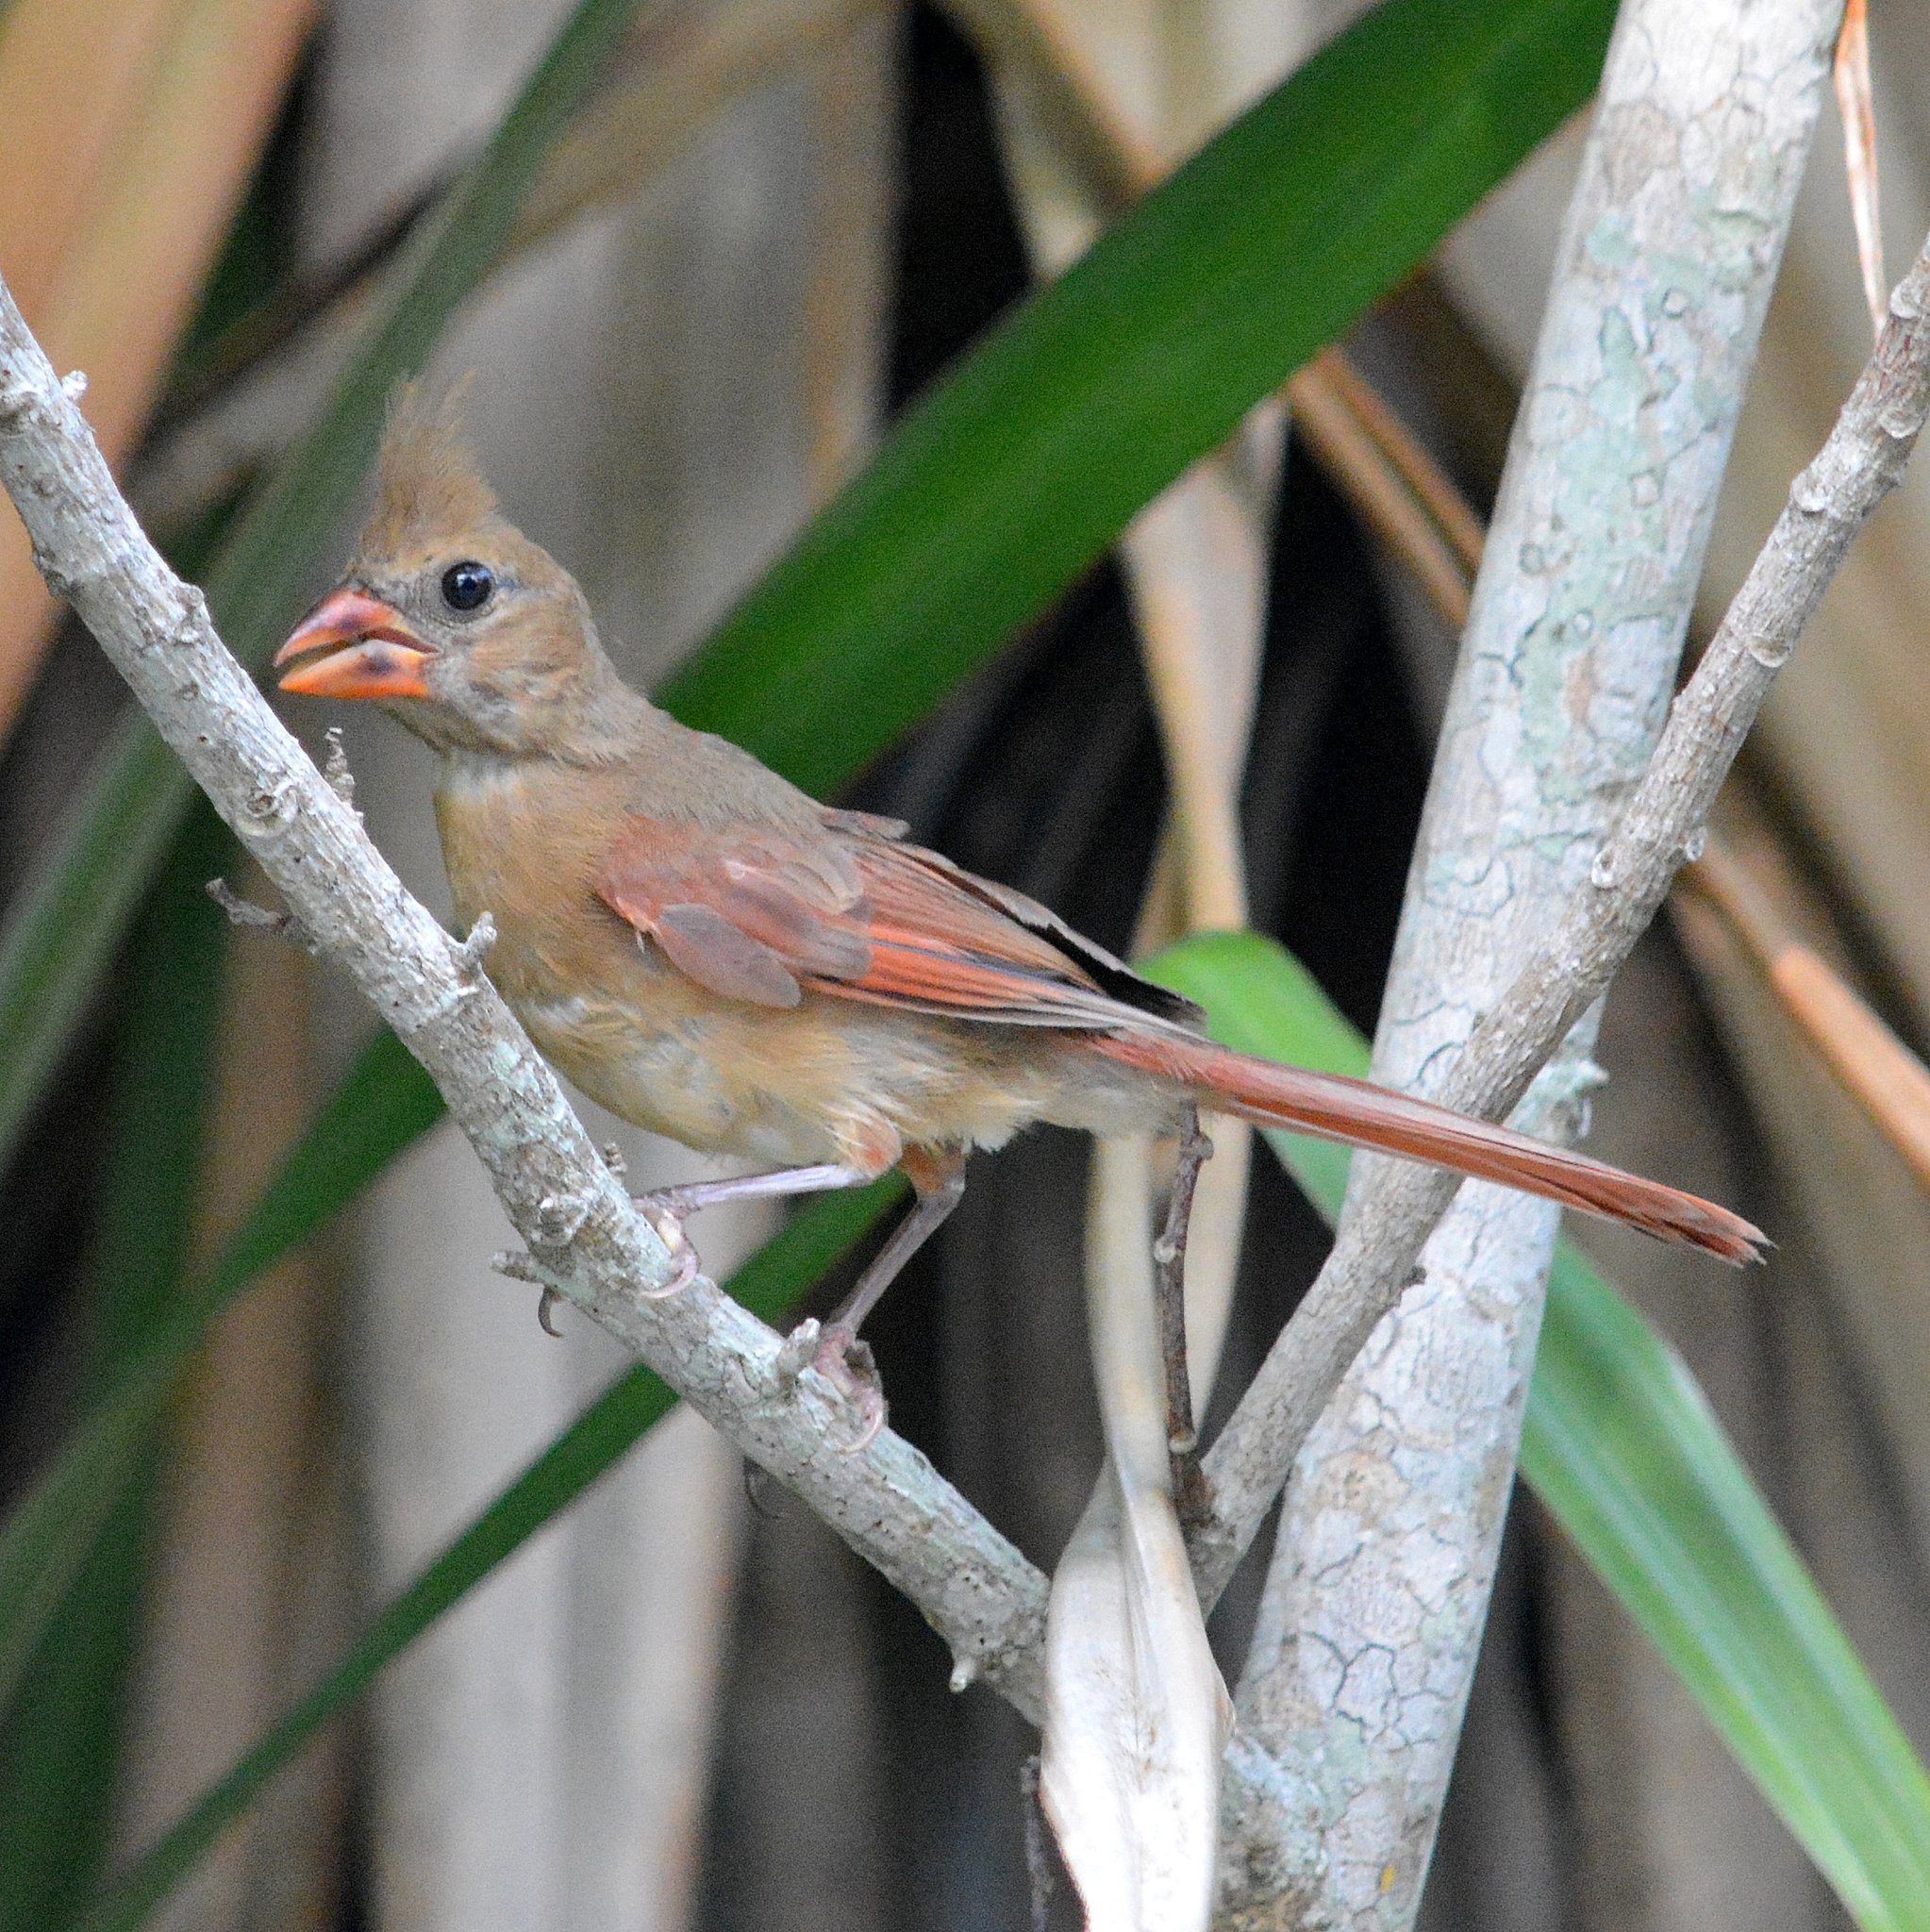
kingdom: Animalia
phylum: Chordata
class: Aves
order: Passeriformes
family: Cardinalidae
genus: Cardinalis
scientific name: Cardinalis cardinalis
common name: Northern cardinal
